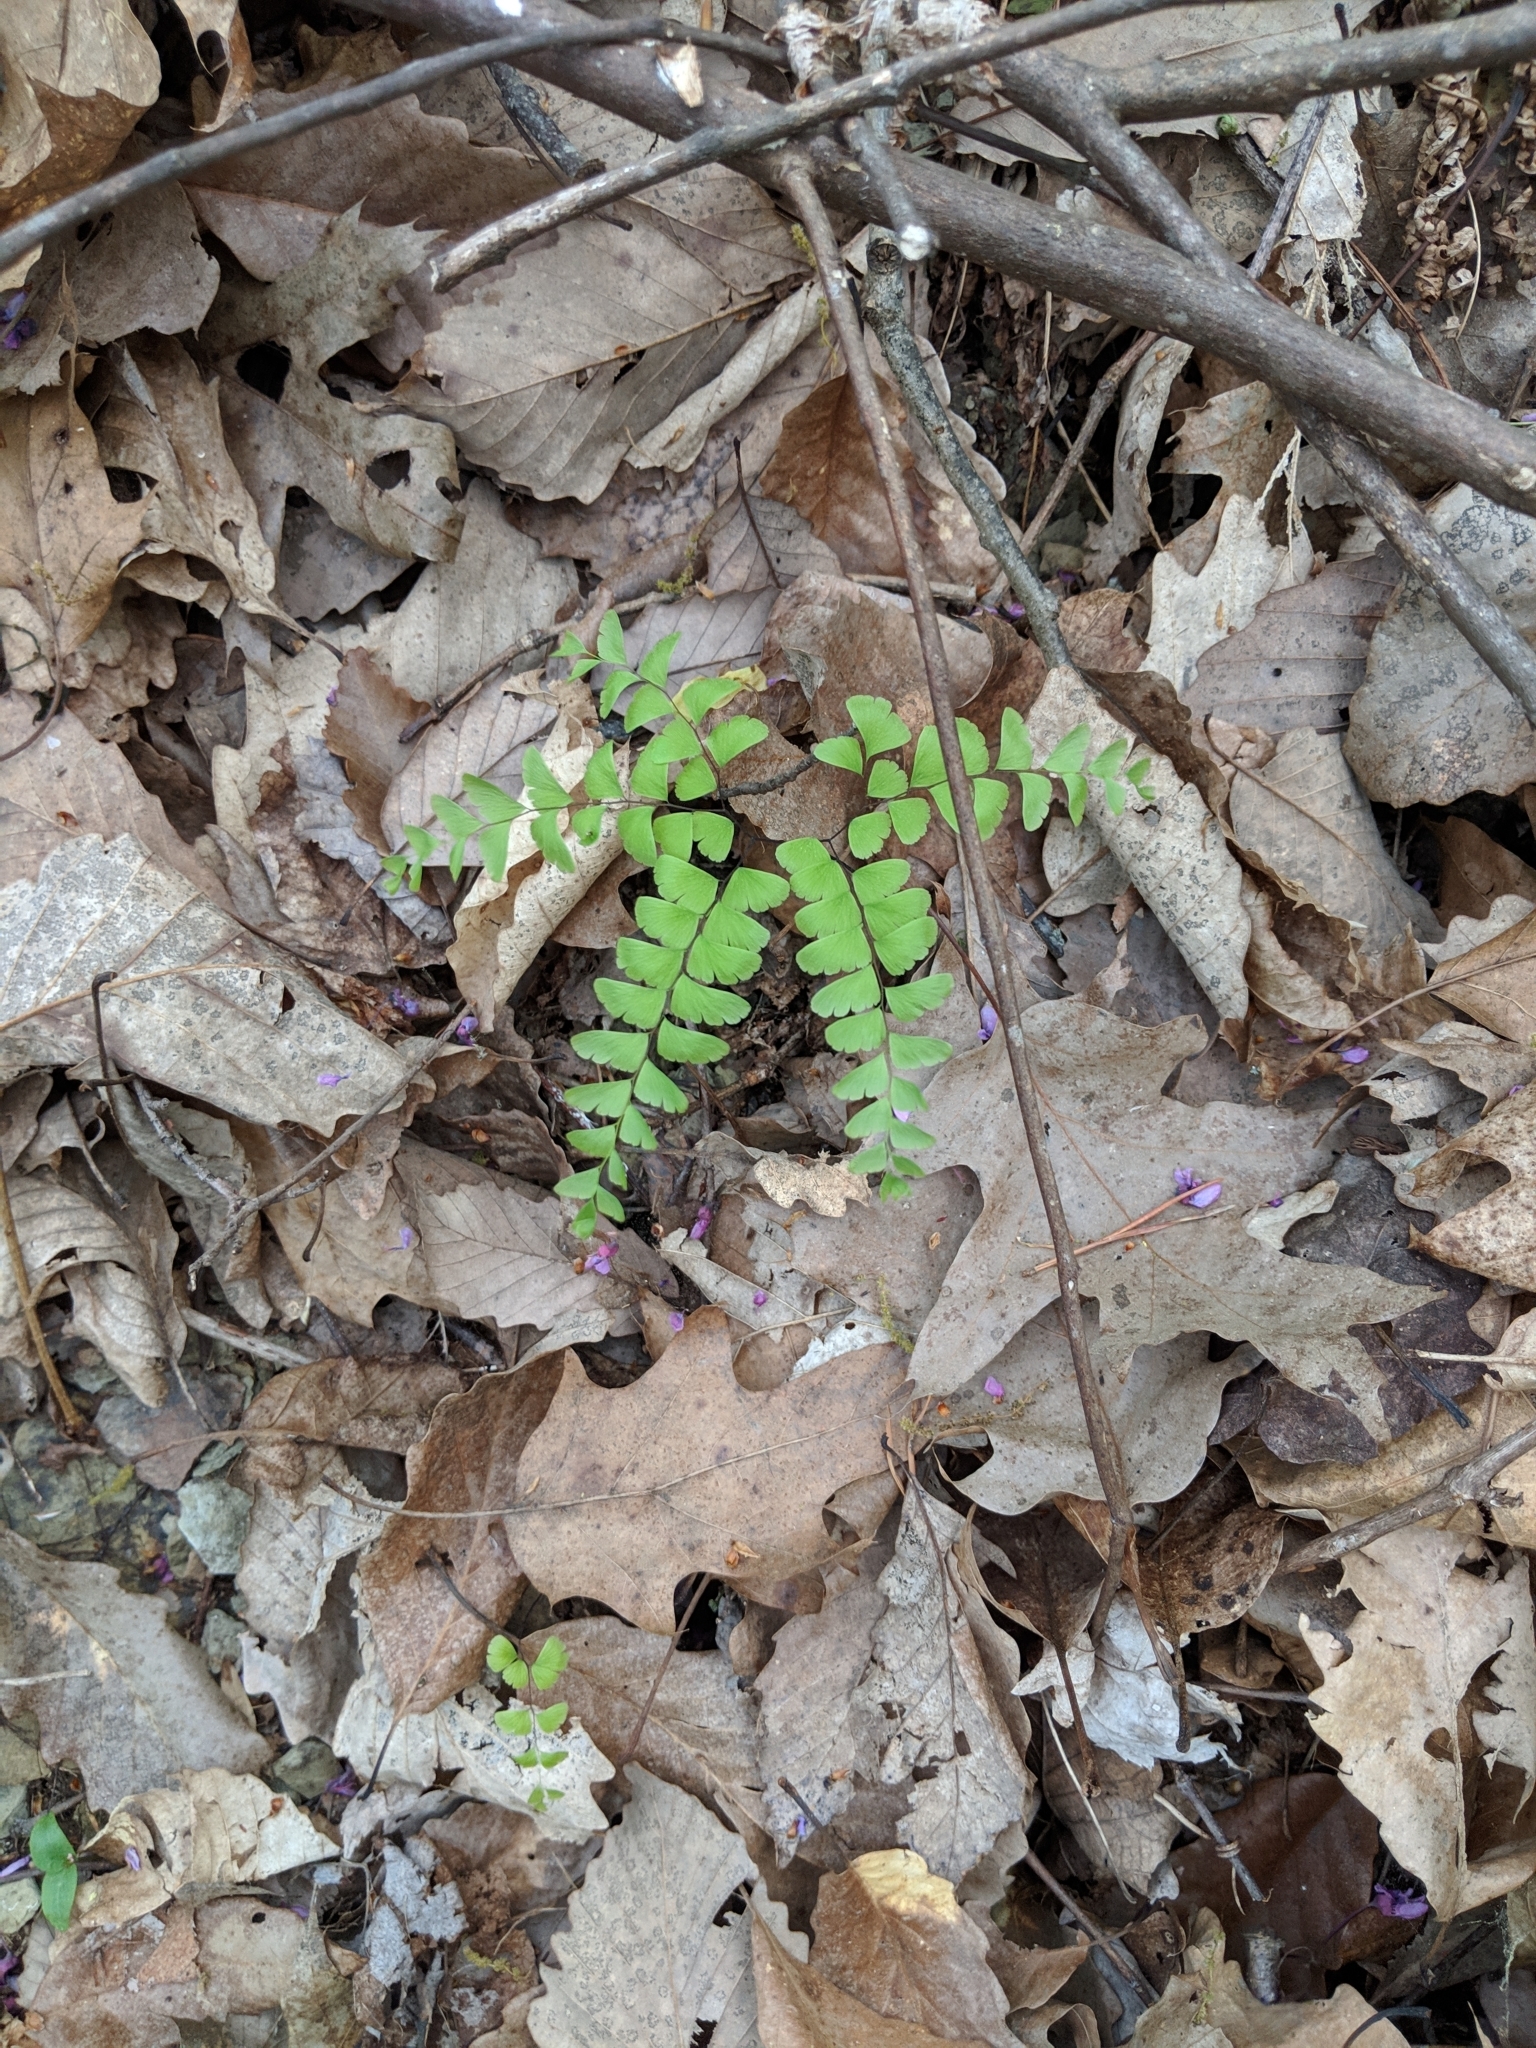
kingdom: Plantae
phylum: Tracheophyta
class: Polypodiopsida
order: Polypodiales
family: Pteridaceae
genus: Adiantum
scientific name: Adiantum pedatum
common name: Five-finger fern
